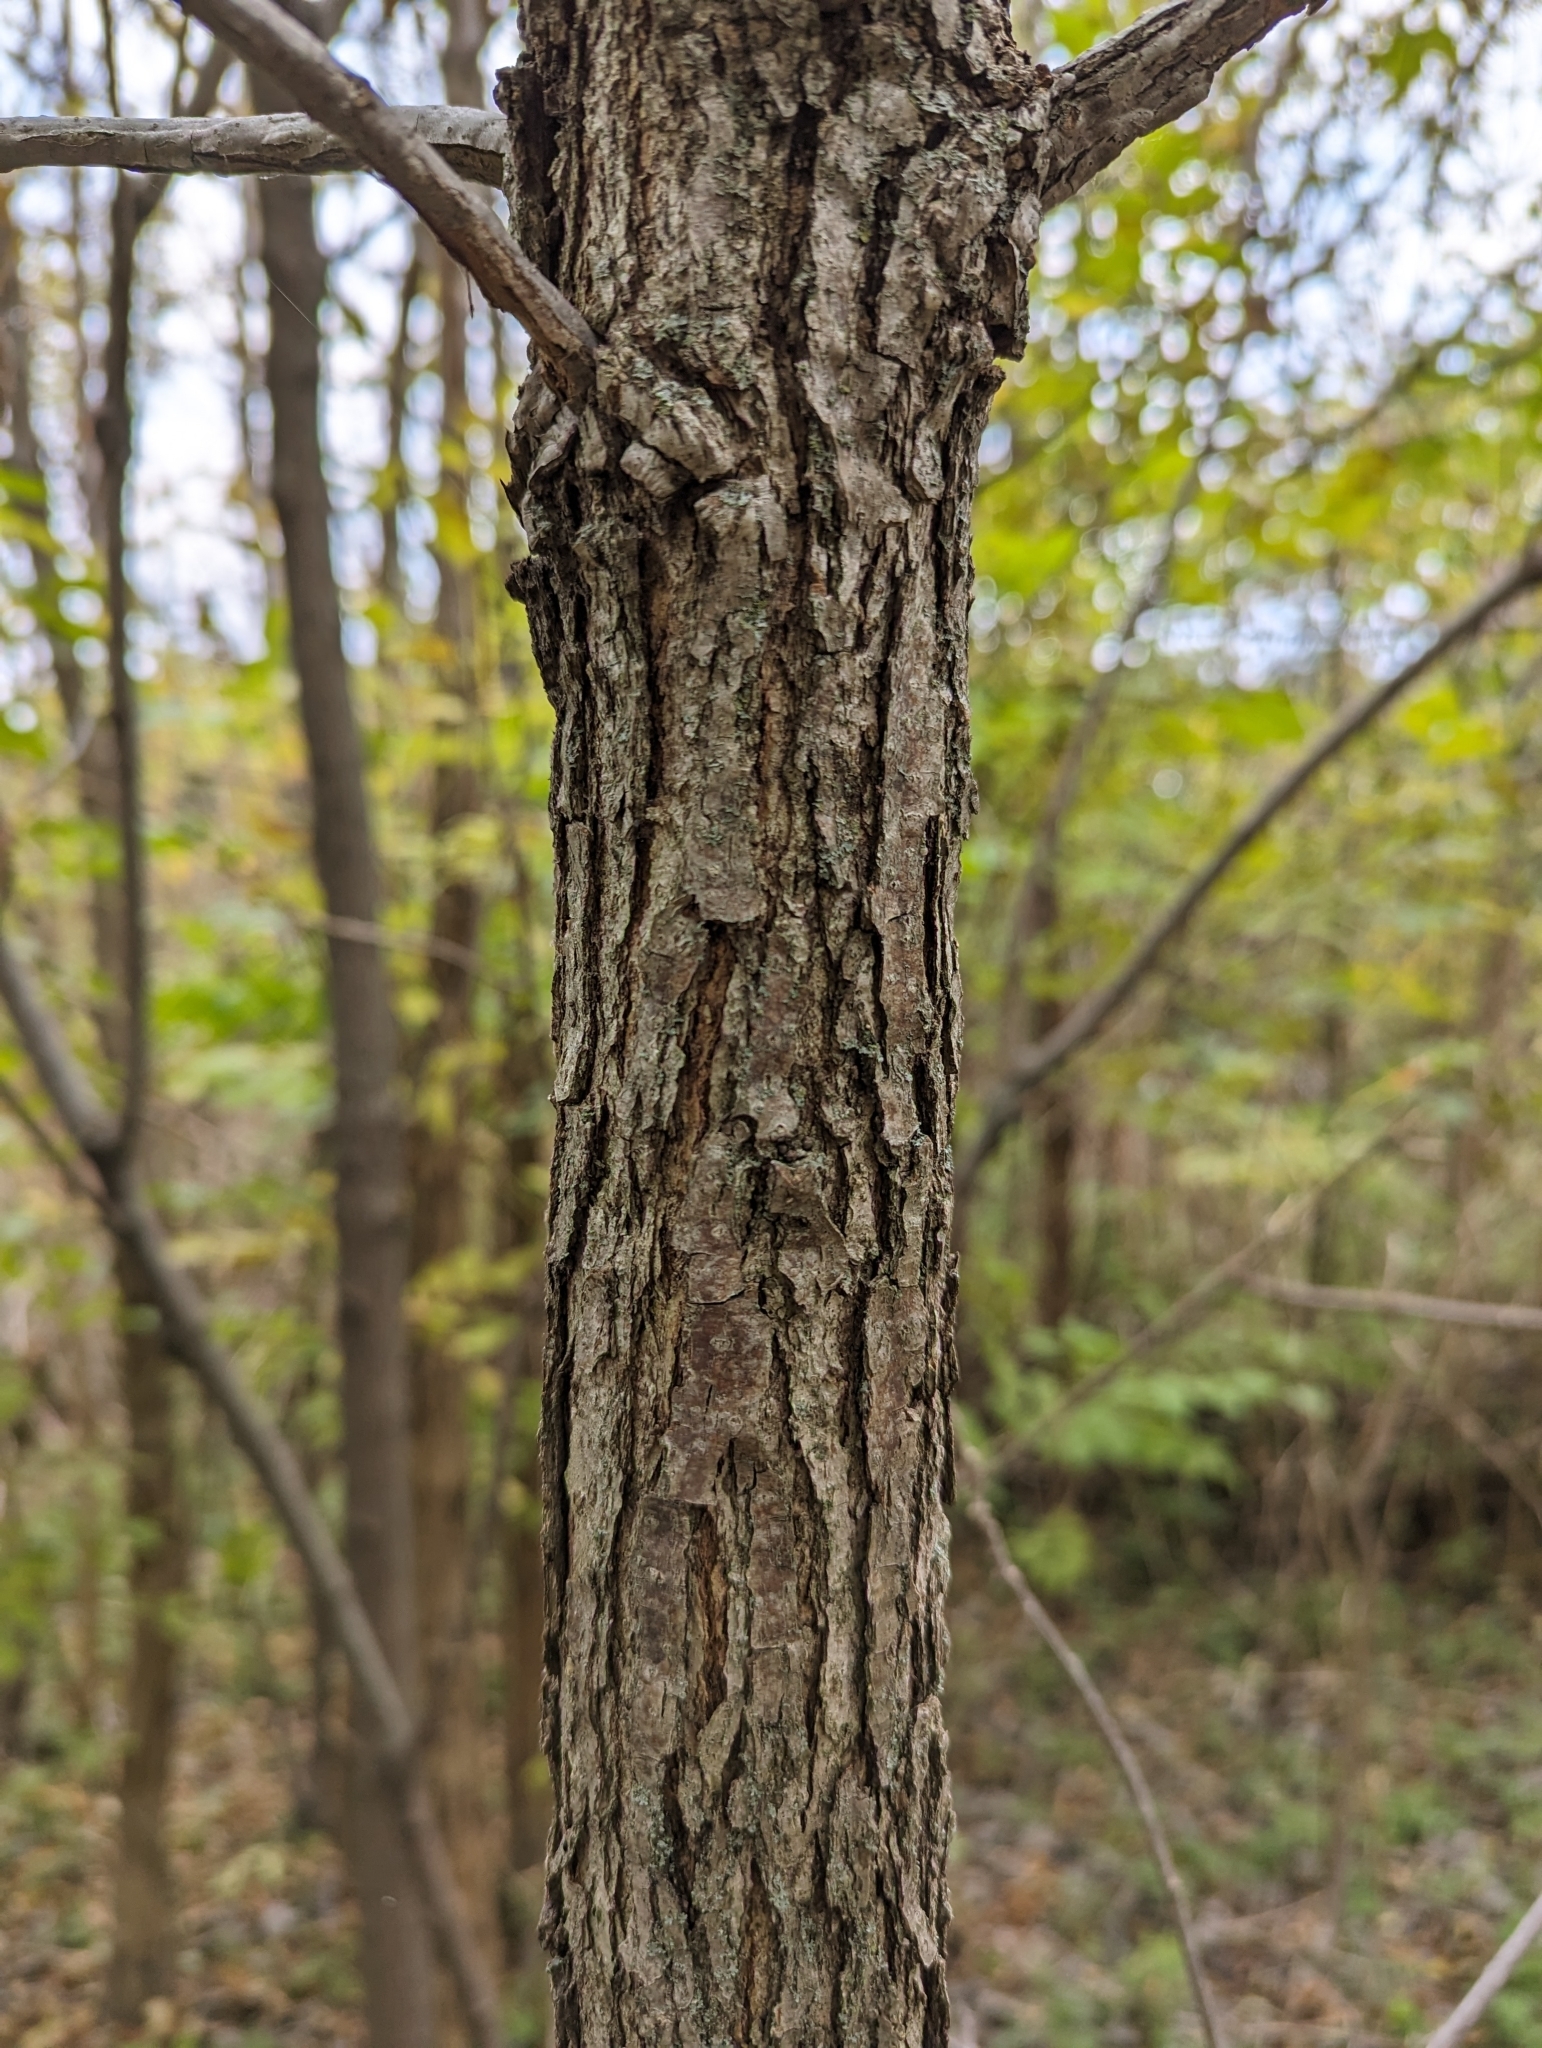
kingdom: Plantae
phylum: Tracheophyta
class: Magnoliopsida
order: Fagales
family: Fagaceae
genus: Quercus
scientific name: Quercus macrocarpa
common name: Bur oak
